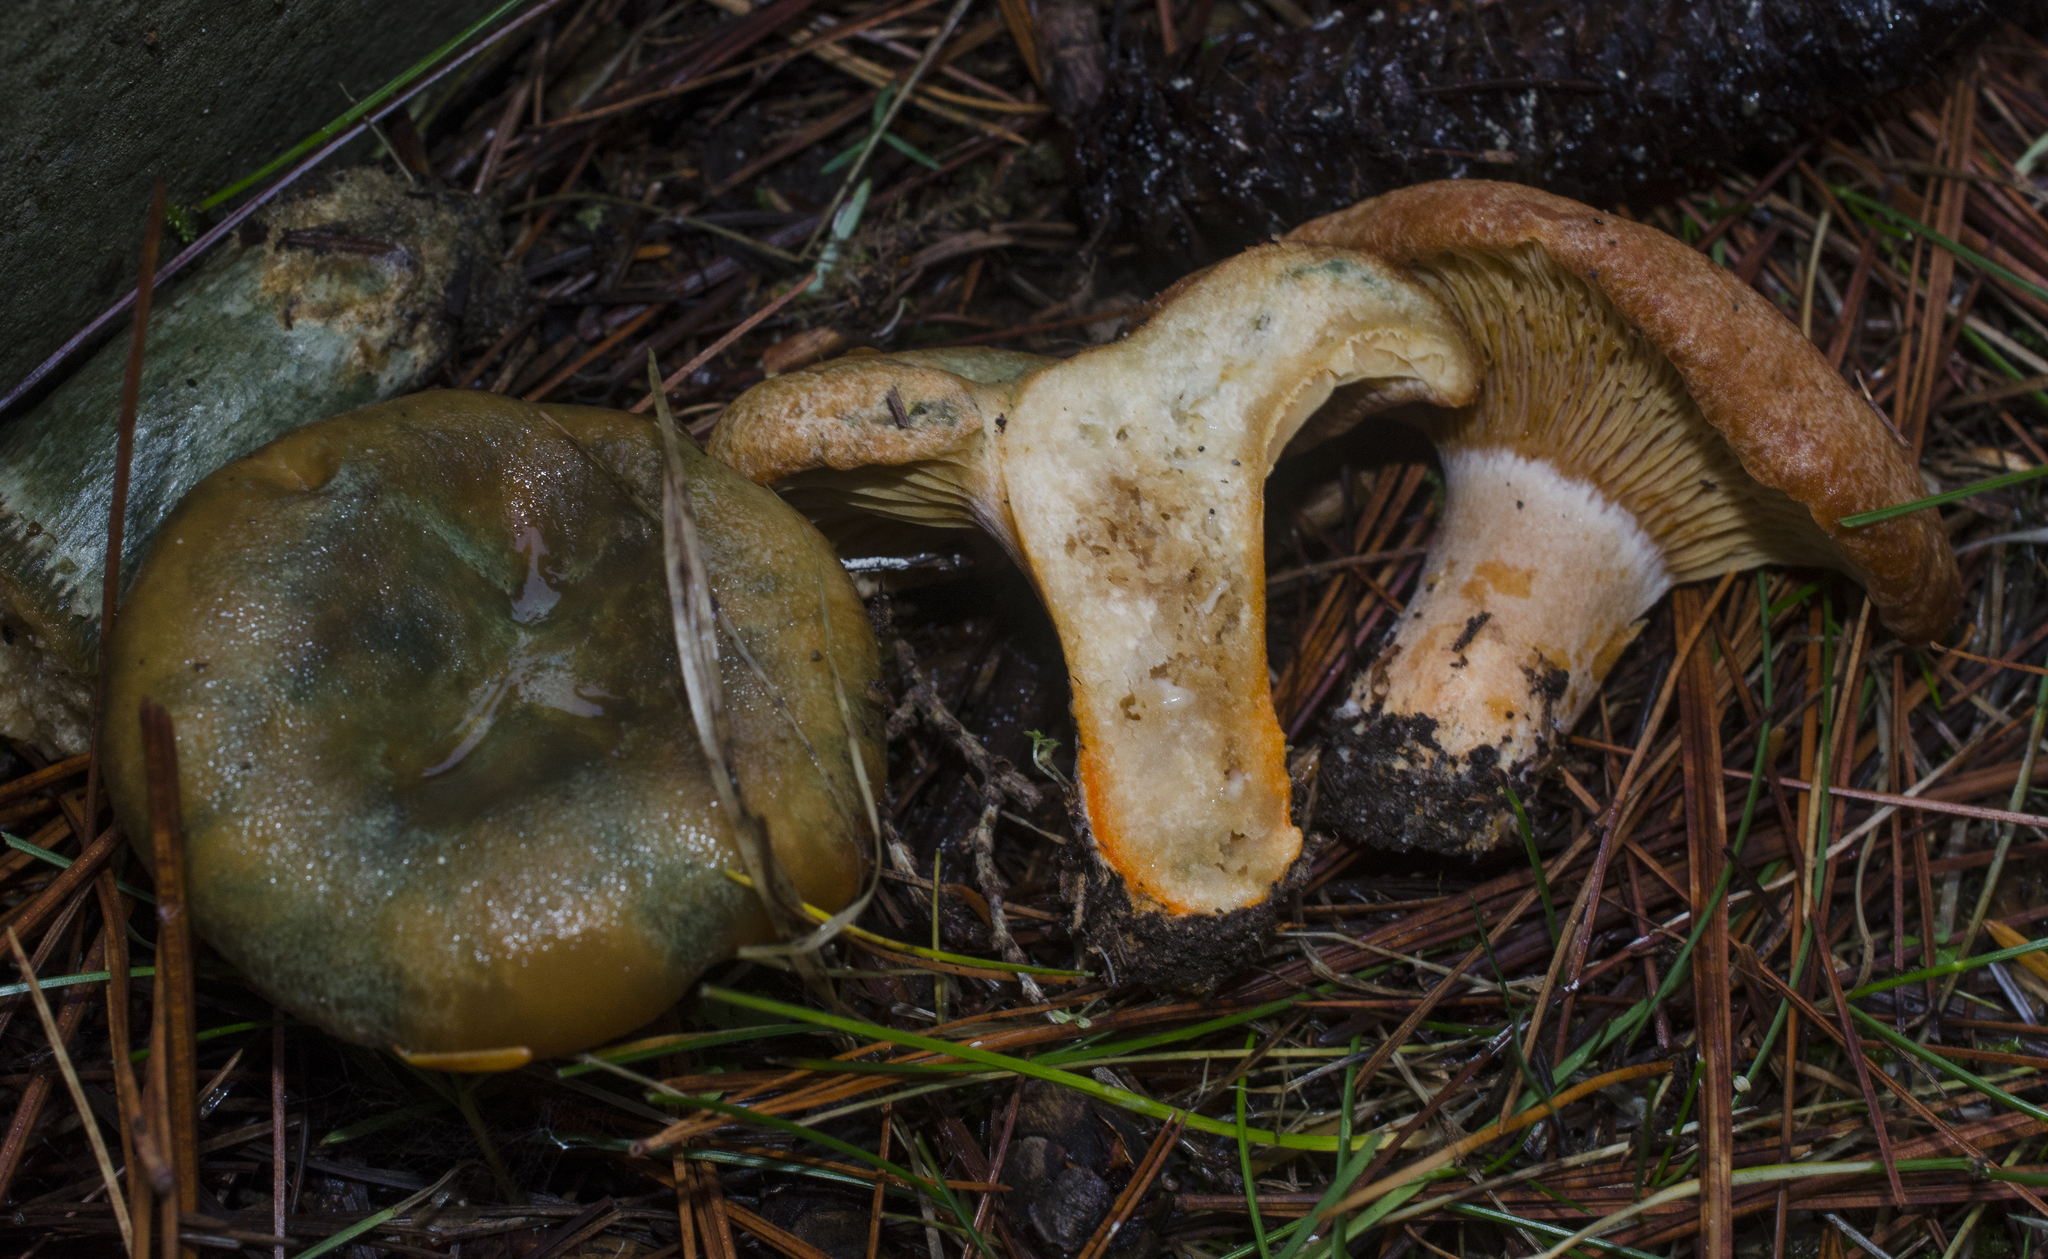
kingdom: Fungi
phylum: Basidiomycota
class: Agaricomycetes
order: Russulales
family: Russulaceae
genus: Lactarius
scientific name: Lactarius deliciosus
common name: Saffron milk-cap
